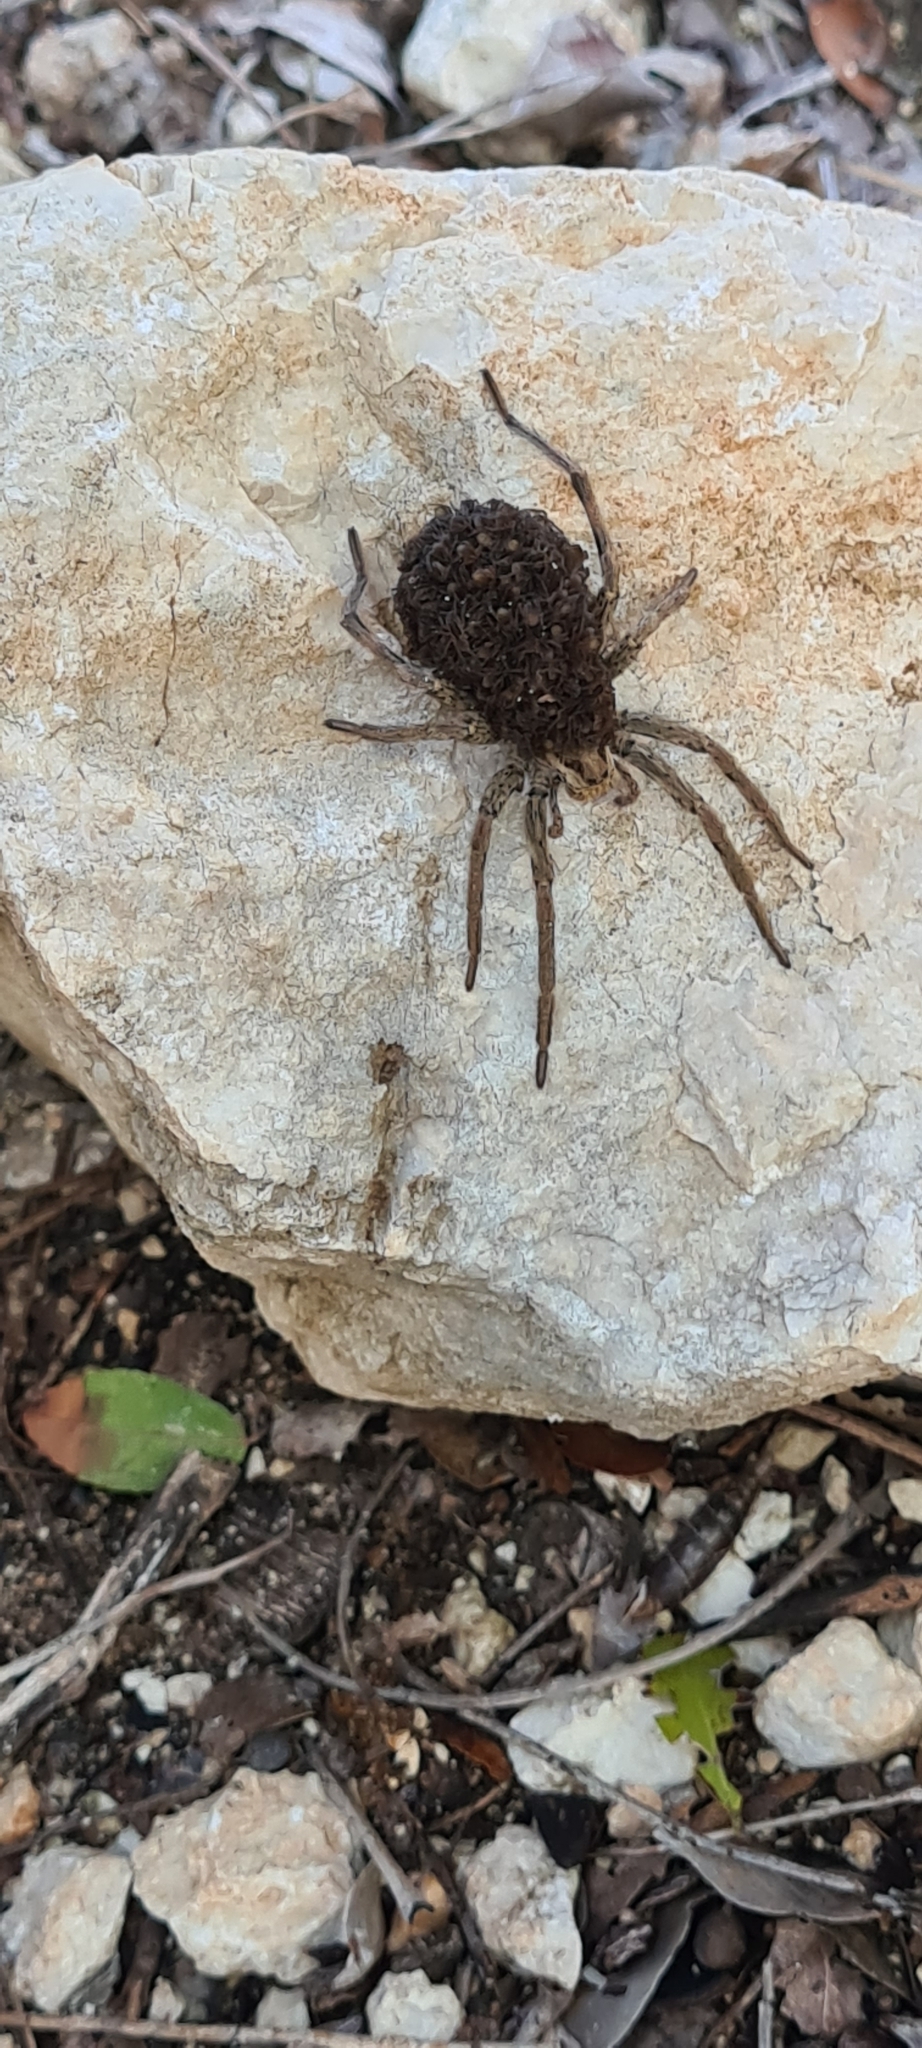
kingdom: Animalia
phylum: Arthropoda
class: Arachnida
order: Araneae
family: Lycosidae
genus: Hogna
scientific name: Hogna radiata
